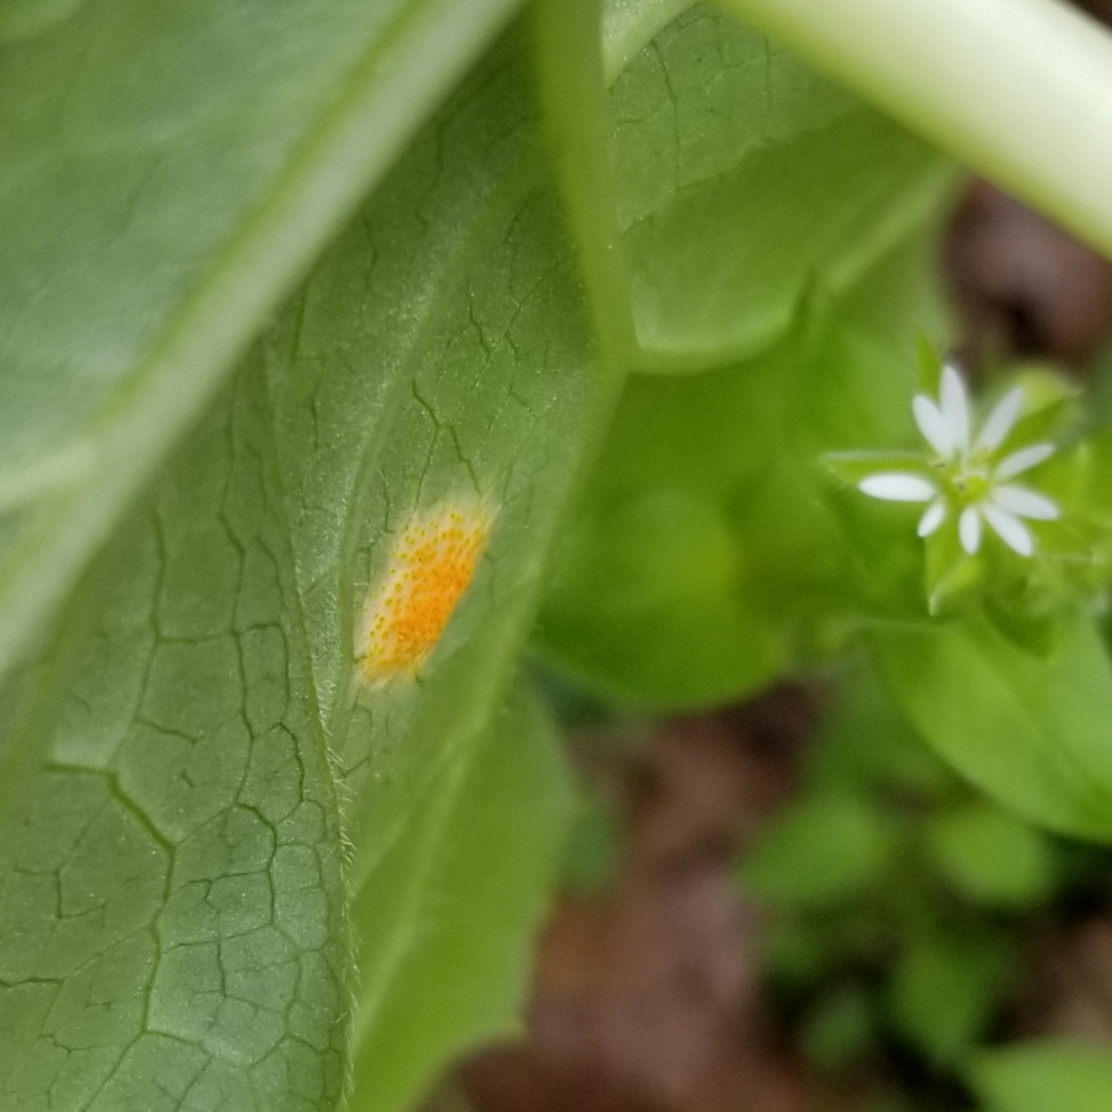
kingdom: Fungi
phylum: Basidiomycota
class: Pucciniomycetes
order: Pucciniales
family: Pucciniaceae
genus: Puccinia
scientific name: Puccinia podophylli
